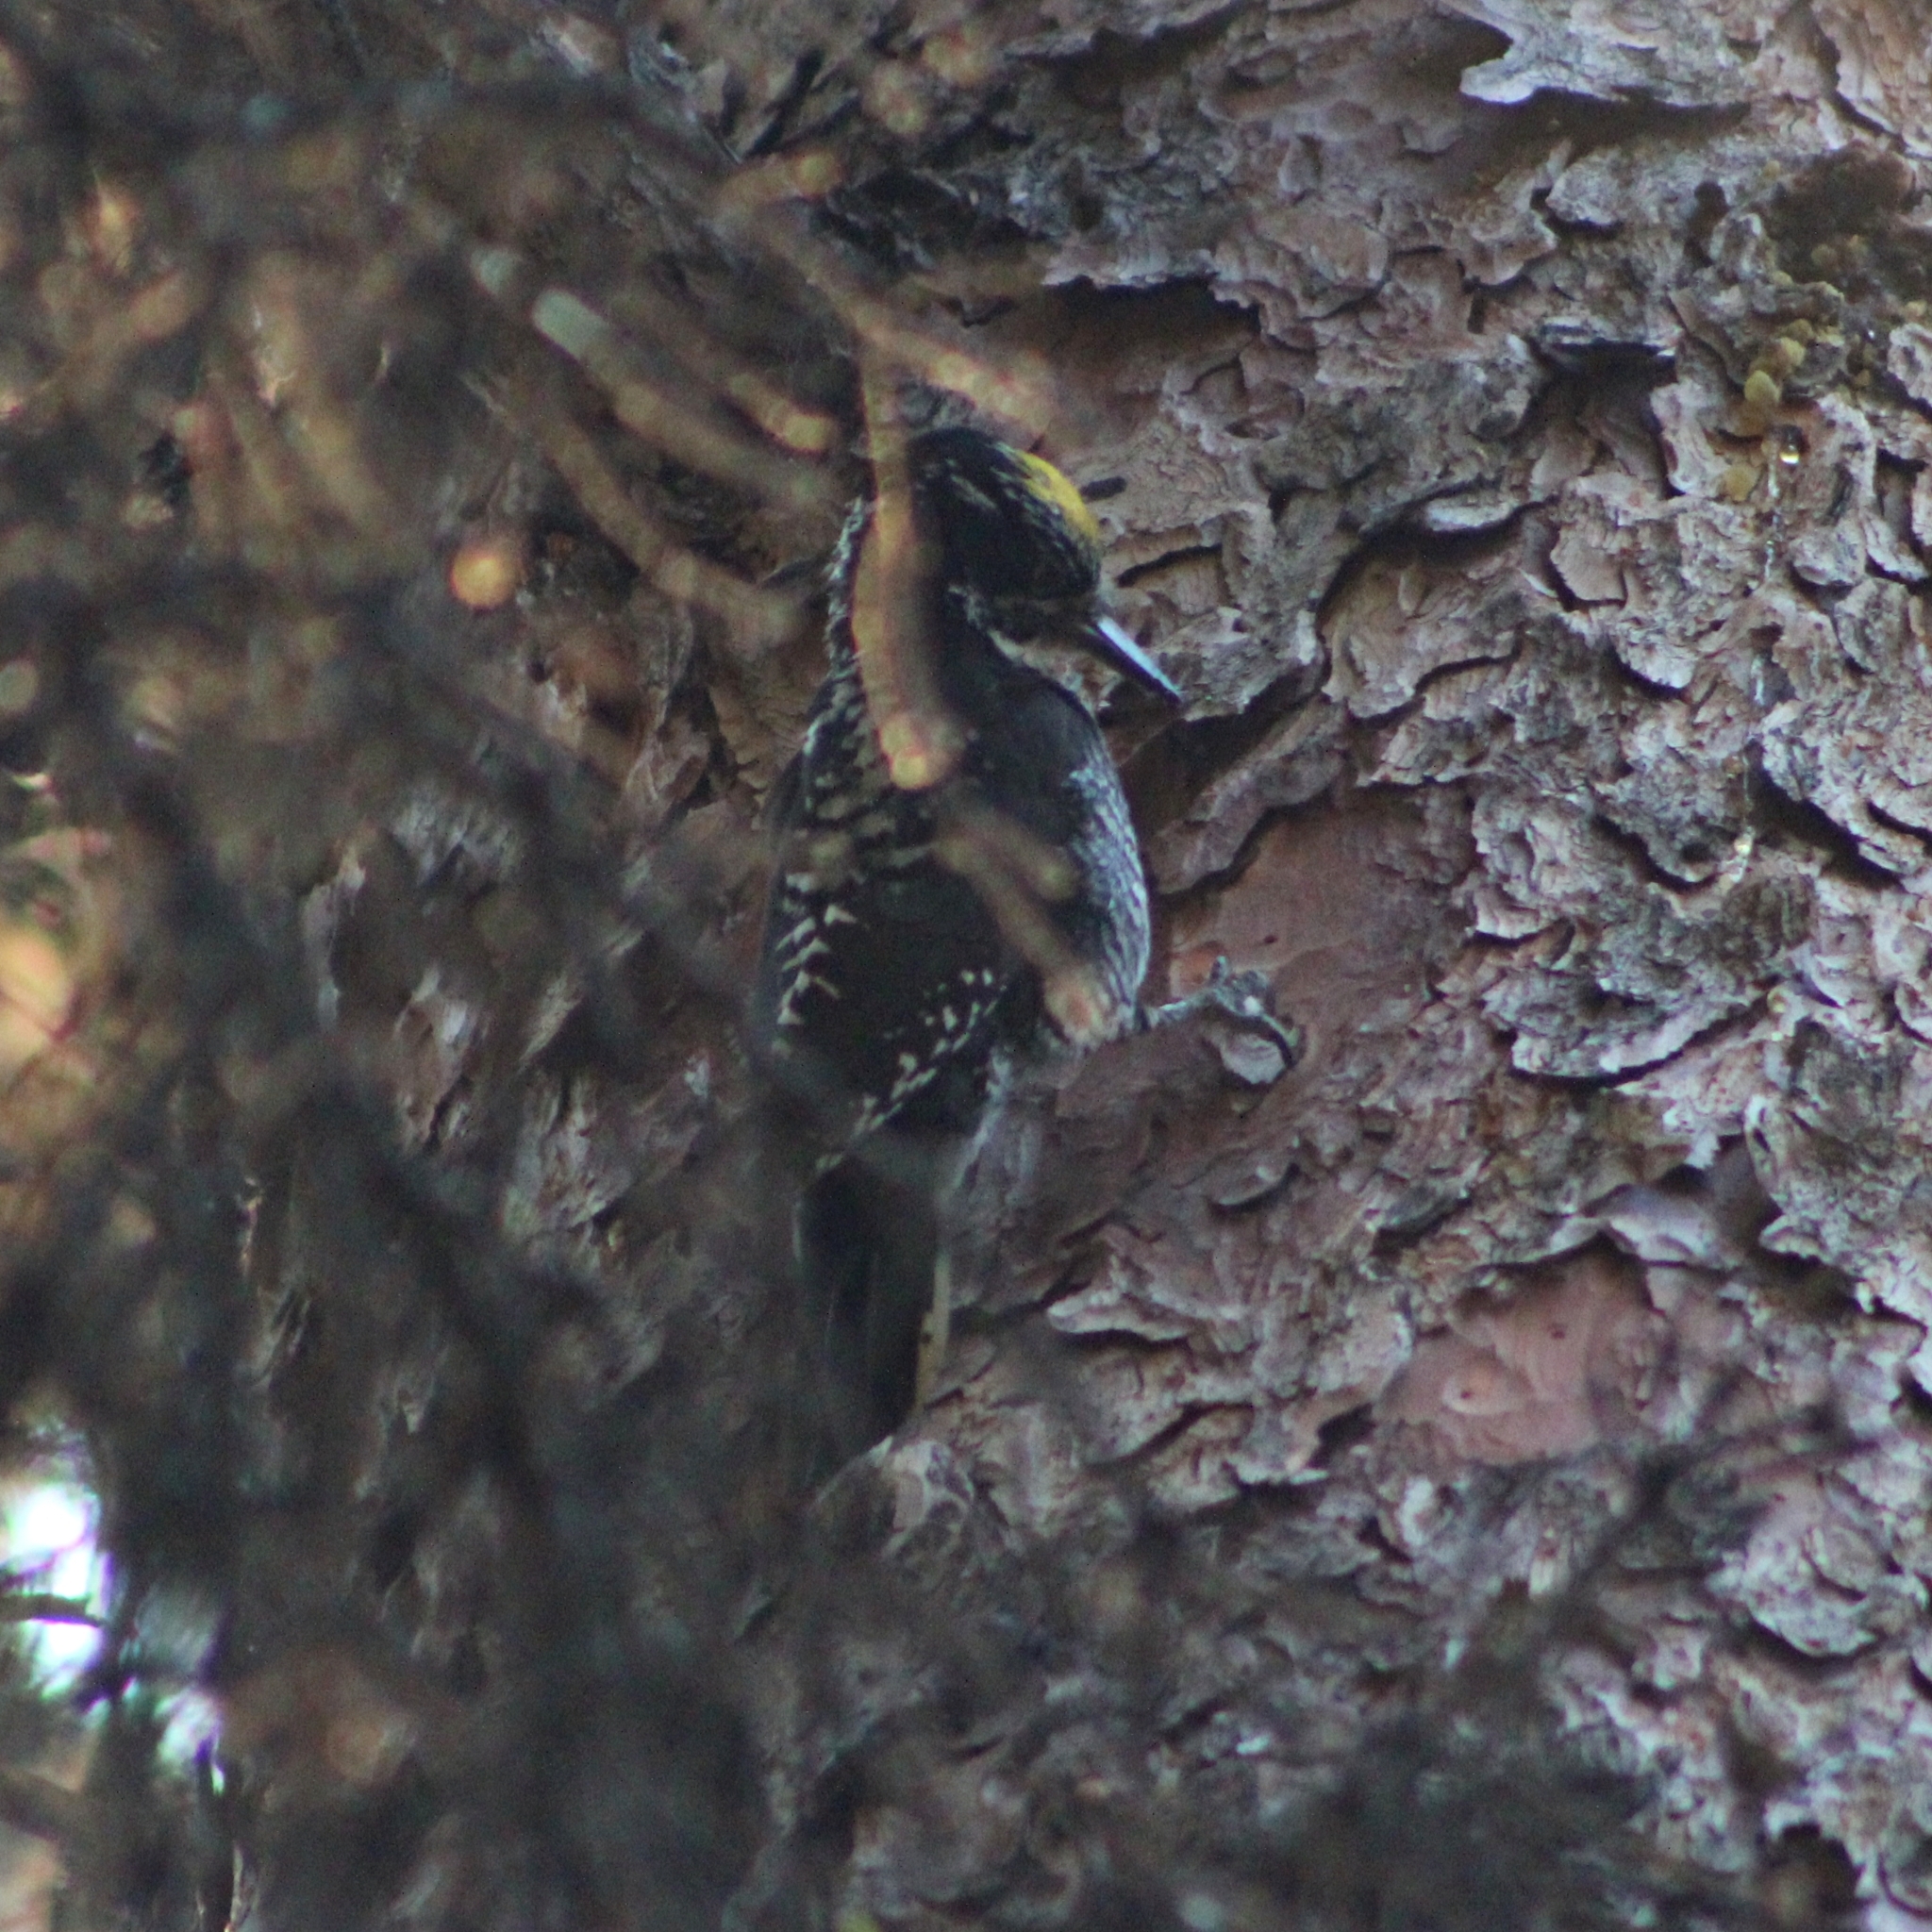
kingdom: Animalia
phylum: Chordata
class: Aves
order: Piciformes
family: Picidae
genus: Picoides
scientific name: Picoides dorsalis
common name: American three-toed woodpecker
